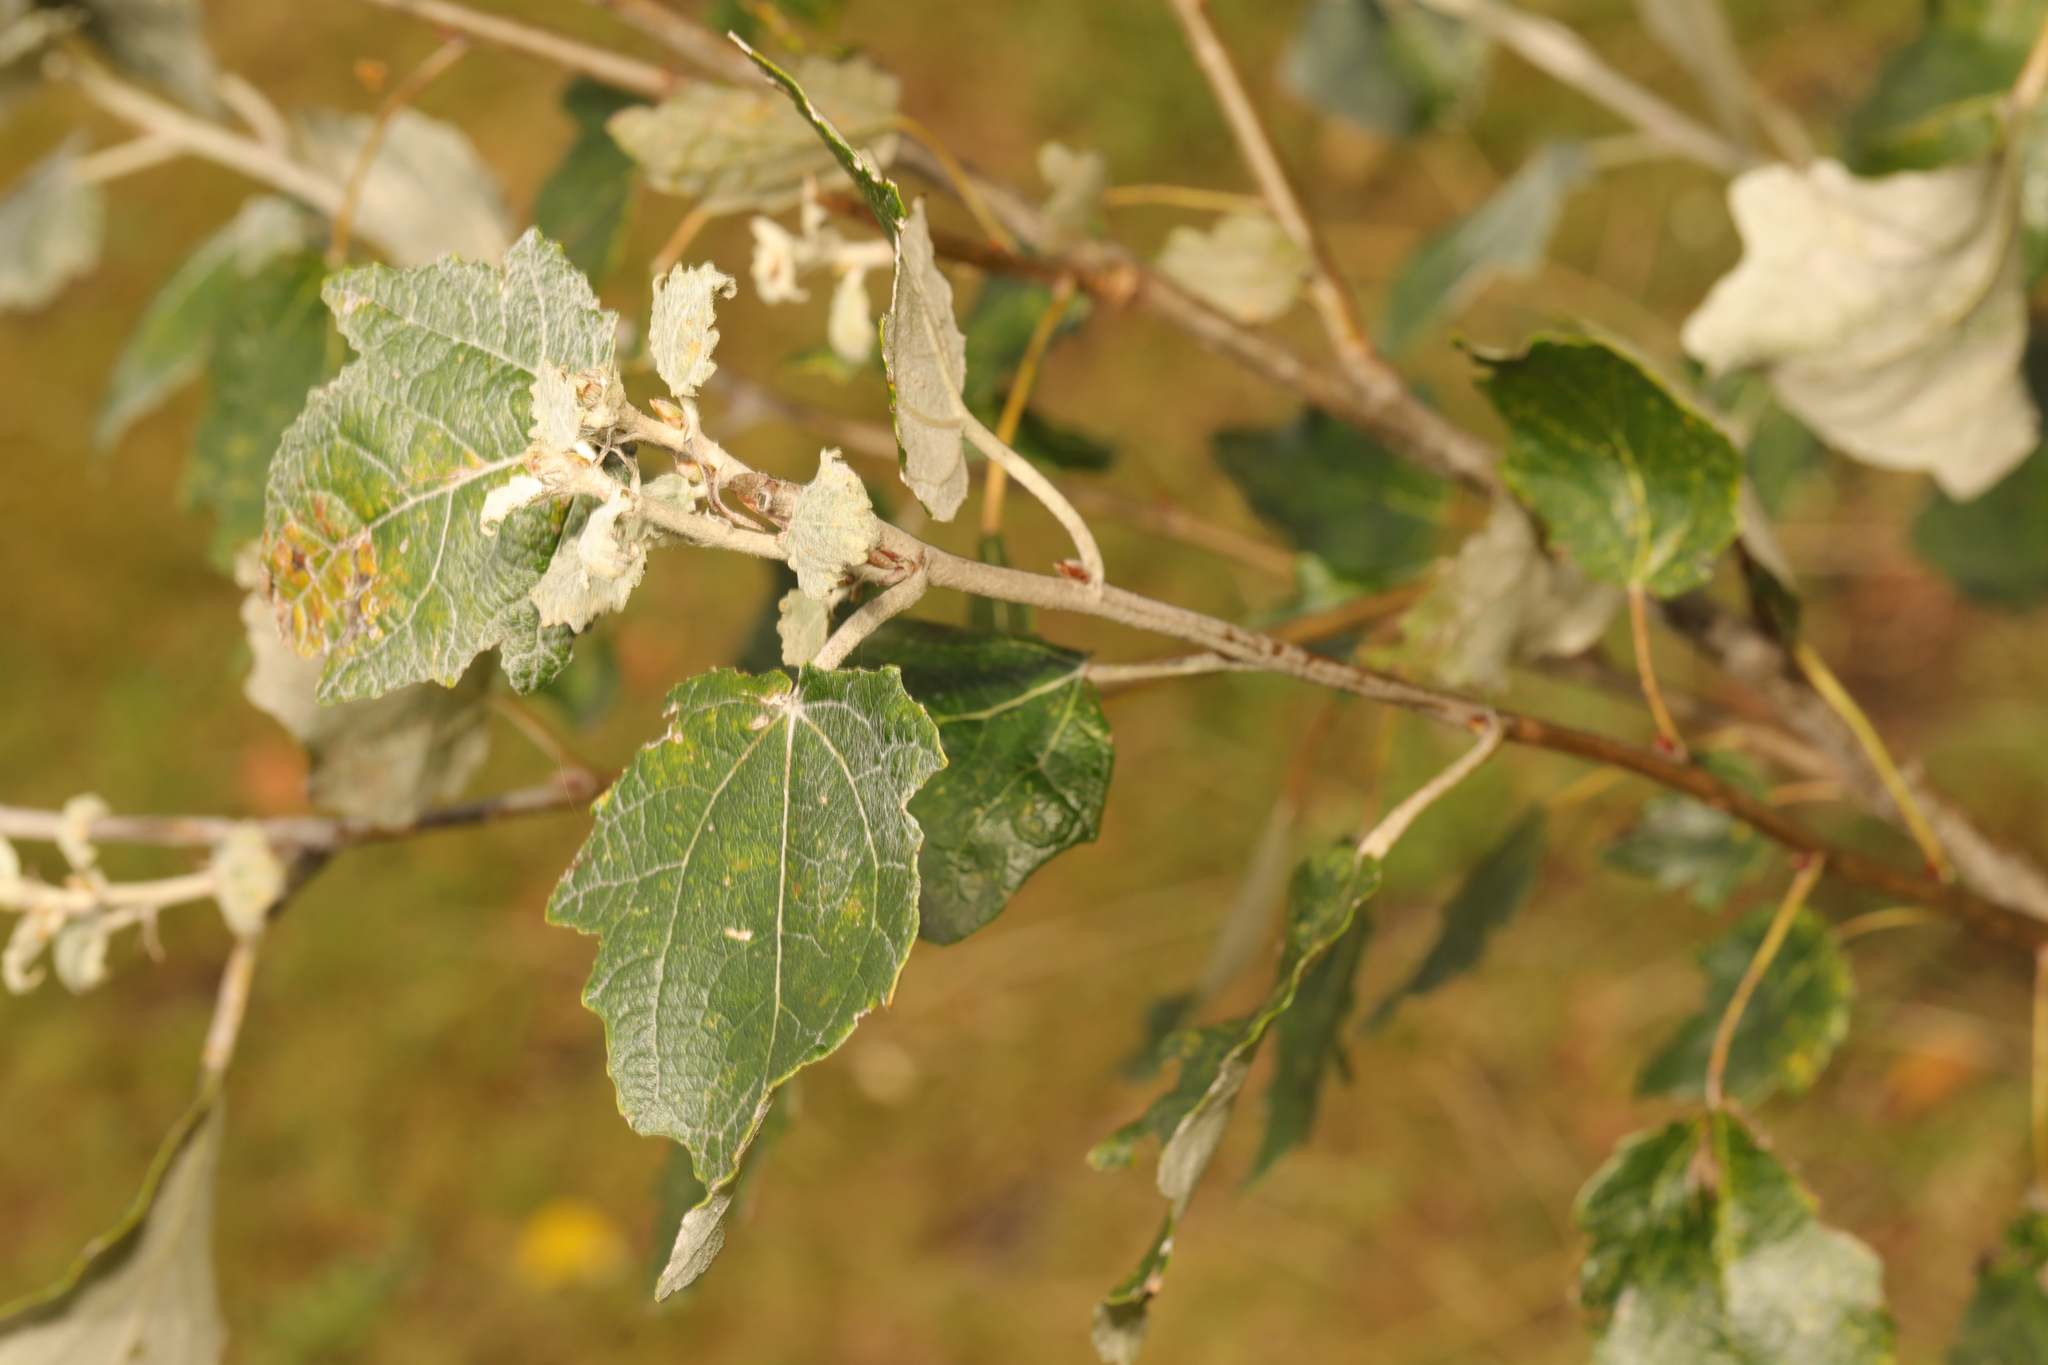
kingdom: Plantae
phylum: Tracheophyta
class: Magnoliopsida
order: Malpighiales
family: Salicaceae
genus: Populus
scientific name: Populus alba
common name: White poplar
